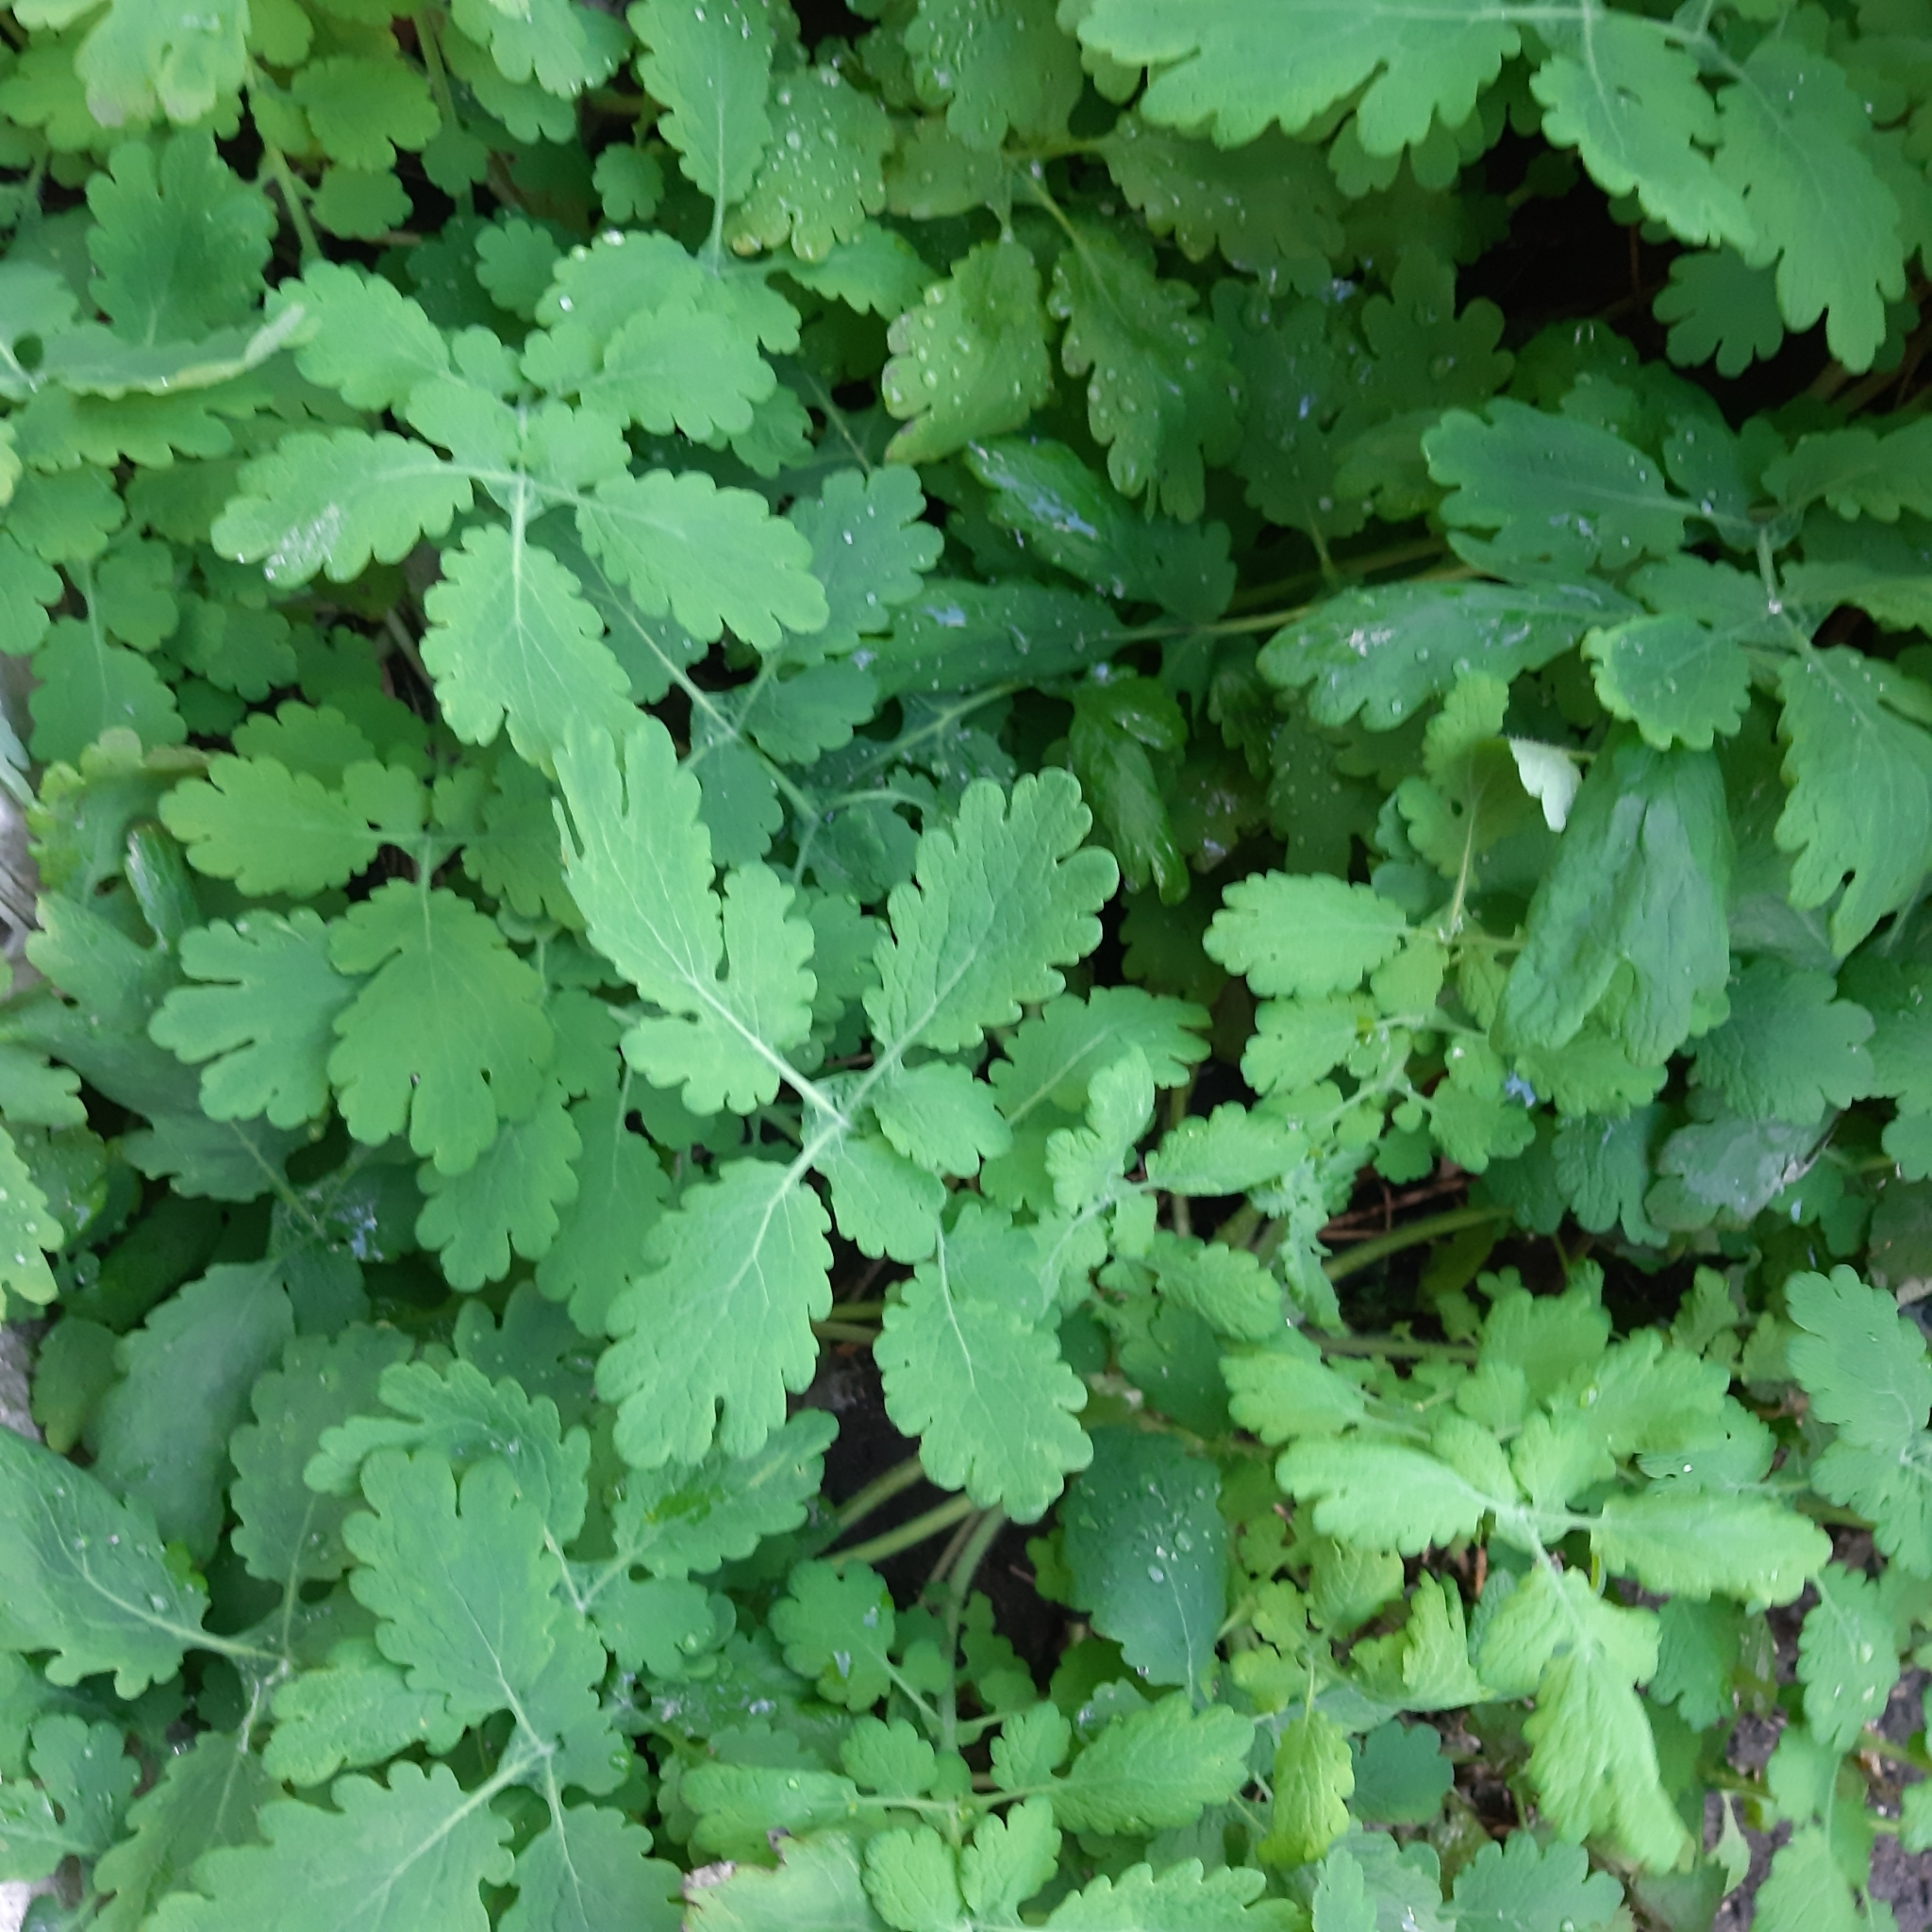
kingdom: Plantae
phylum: Tracheophyta
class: Magnoliopsida
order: Ranunculales
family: Papaveraceae
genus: Chelidonium
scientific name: Chelidonium majus
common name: Greater celandine
